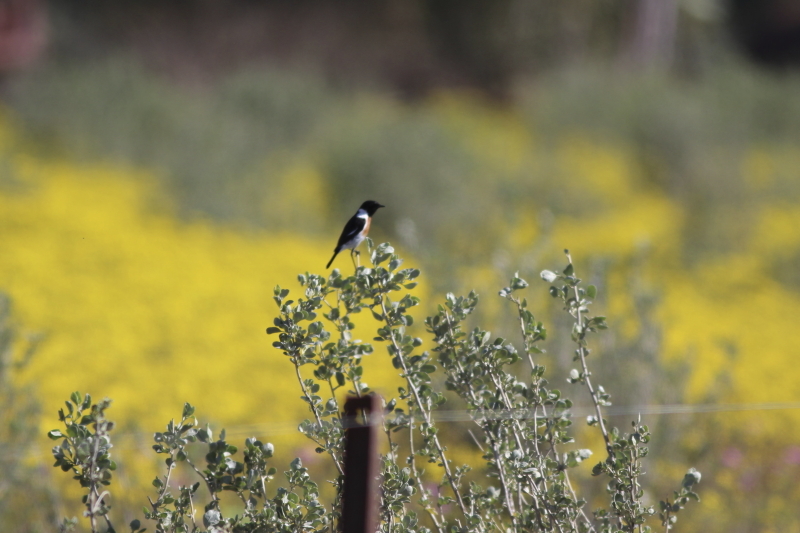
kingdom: Animalia
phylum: Chordata
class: Aves
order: Passeriformes
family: Muscicapidae
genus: Saxicola
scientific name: Saxicola torquatus
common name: African stonechat
